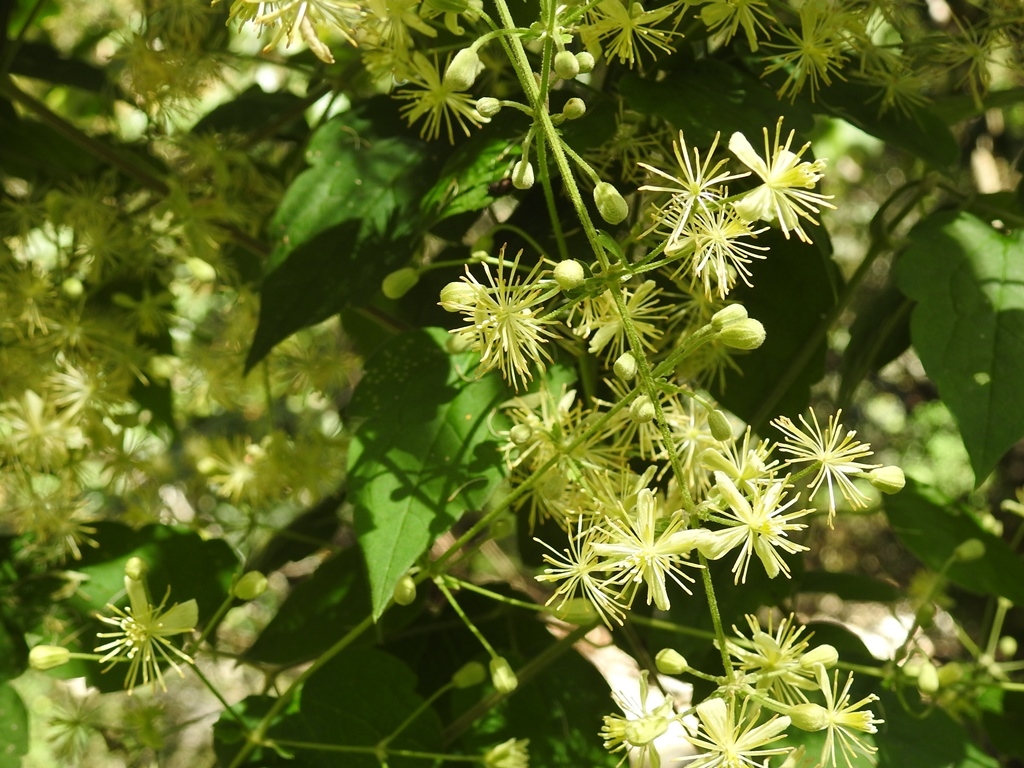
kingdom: Plantae
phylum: Tracheophyta
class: Magnoliopsida
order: Ranunculales
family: Ranunculaceae
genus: Clematis
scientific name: Clematis dioica
